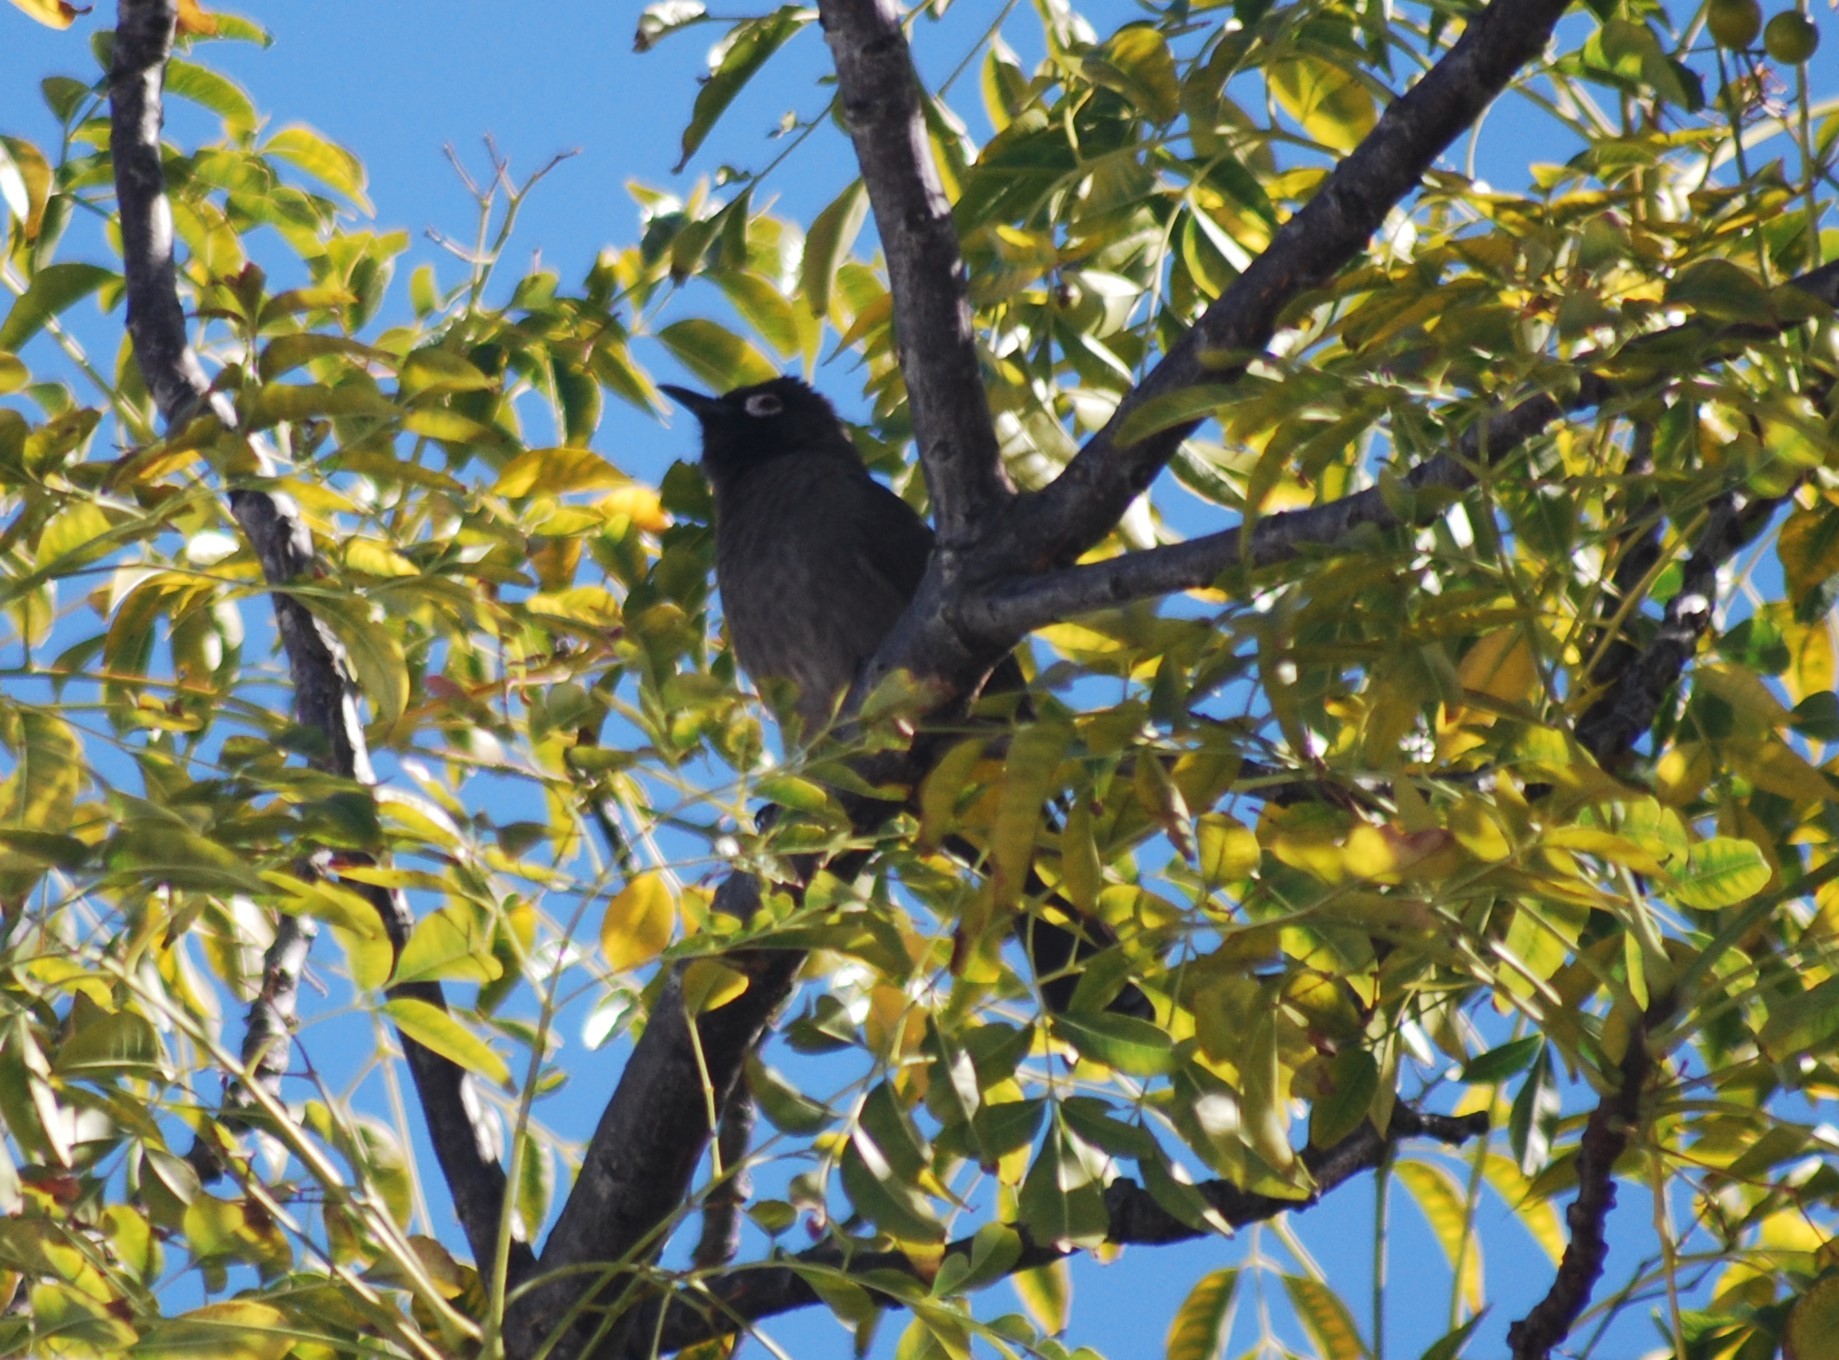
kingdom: Animalia
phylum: Chordata
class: Aves
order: Passeriformes
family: Pycnonotidae
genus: Pycnonotus
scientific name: Pycnonotus capensis
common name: Cape bulbul
